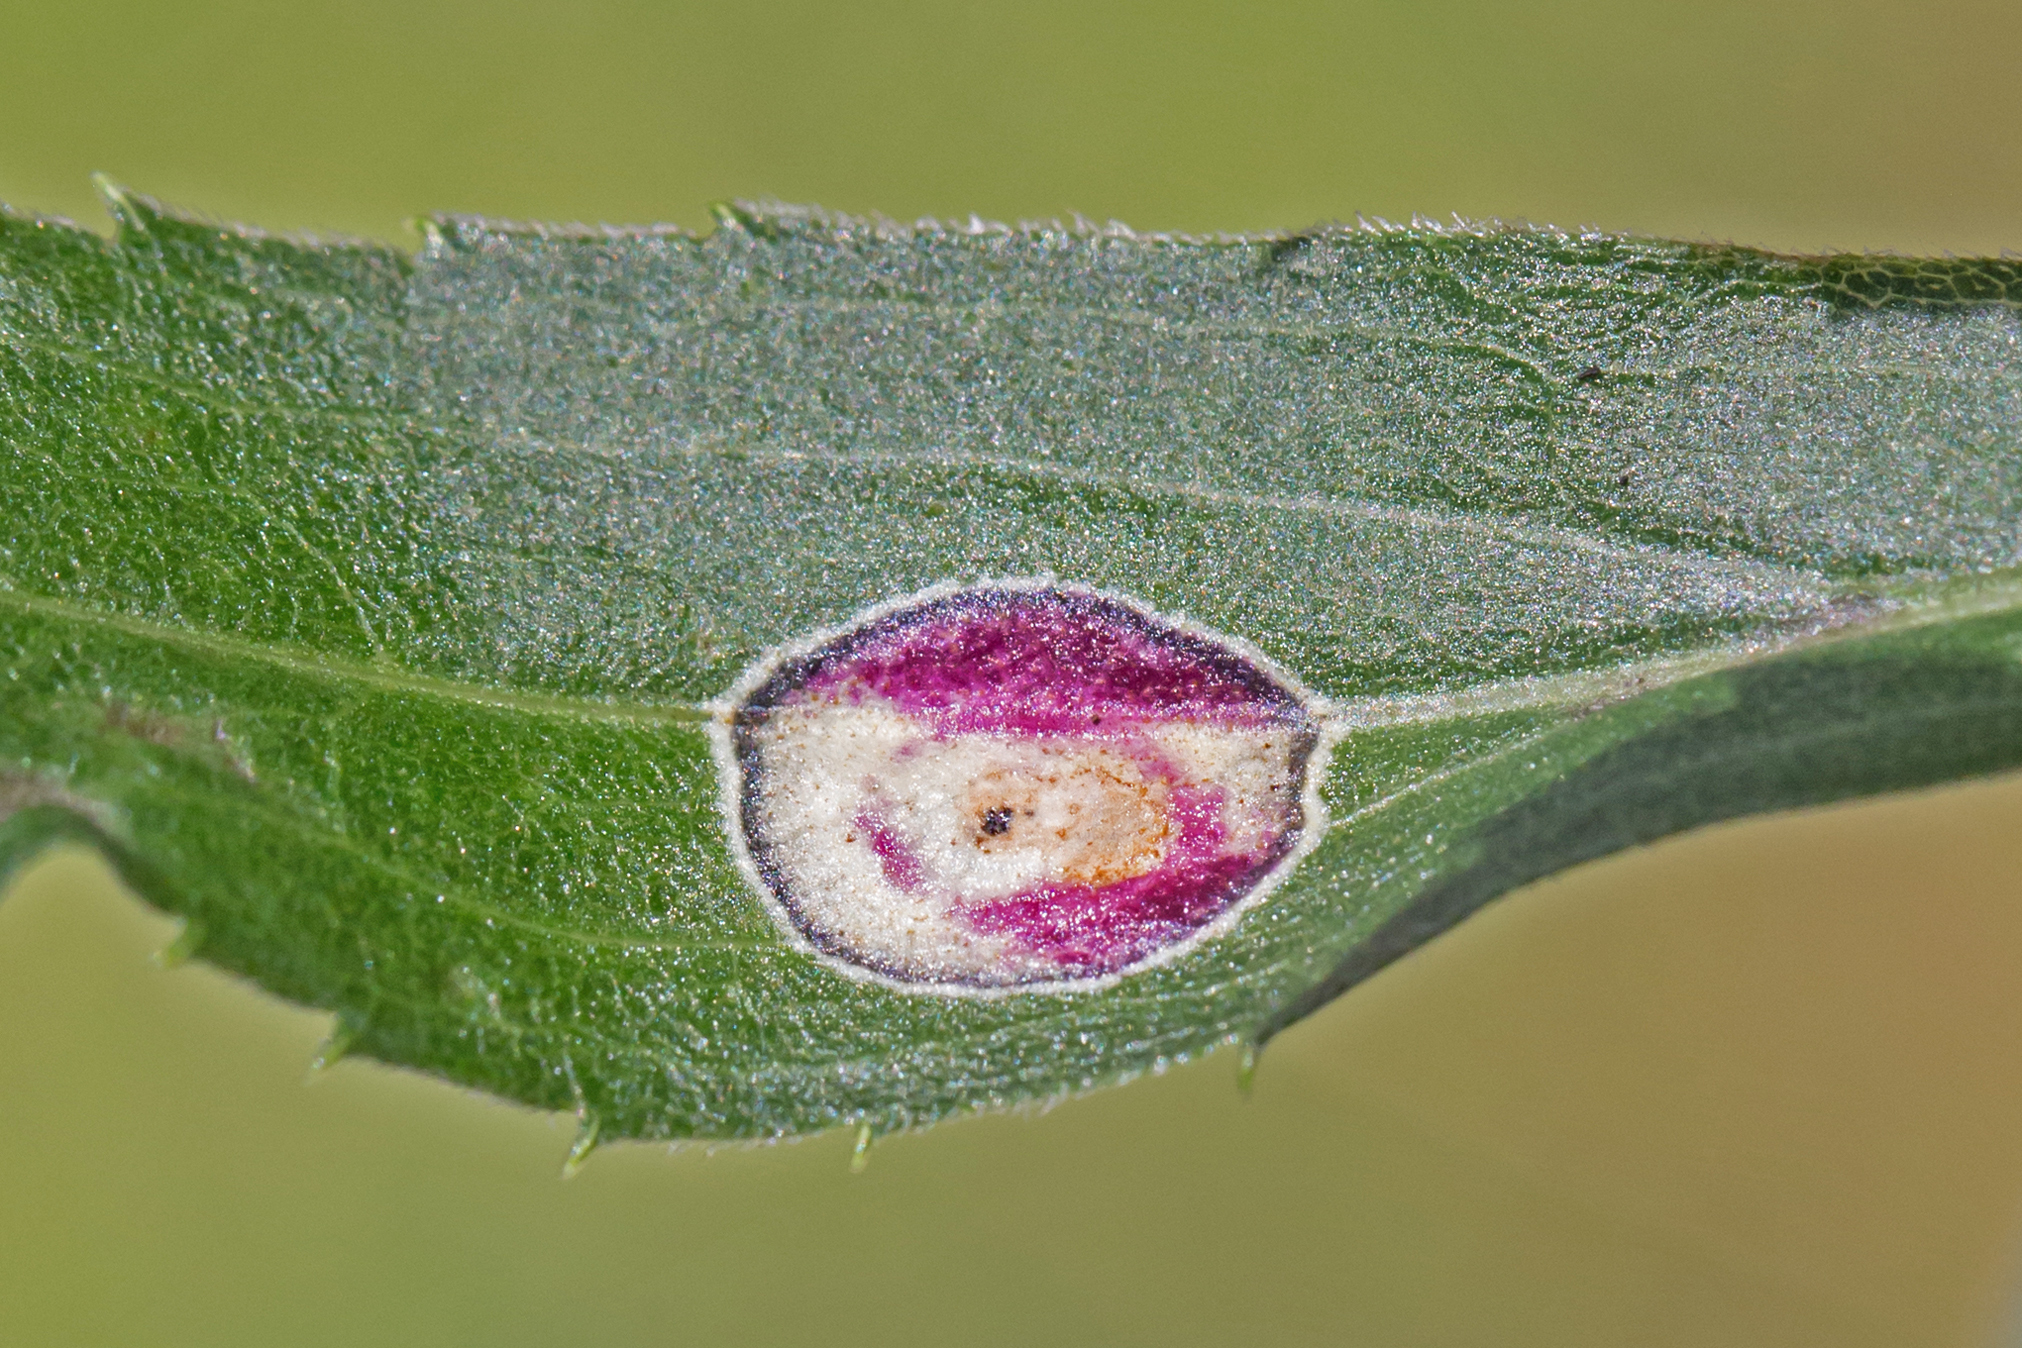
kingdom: Animalia
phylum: Arthropoda
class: Insecta
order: Diptera
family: Cecidomyiidae
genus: Asteromyia
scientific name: Asteromyia carbonifera
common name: Carbonifera goldenrod gall midge
